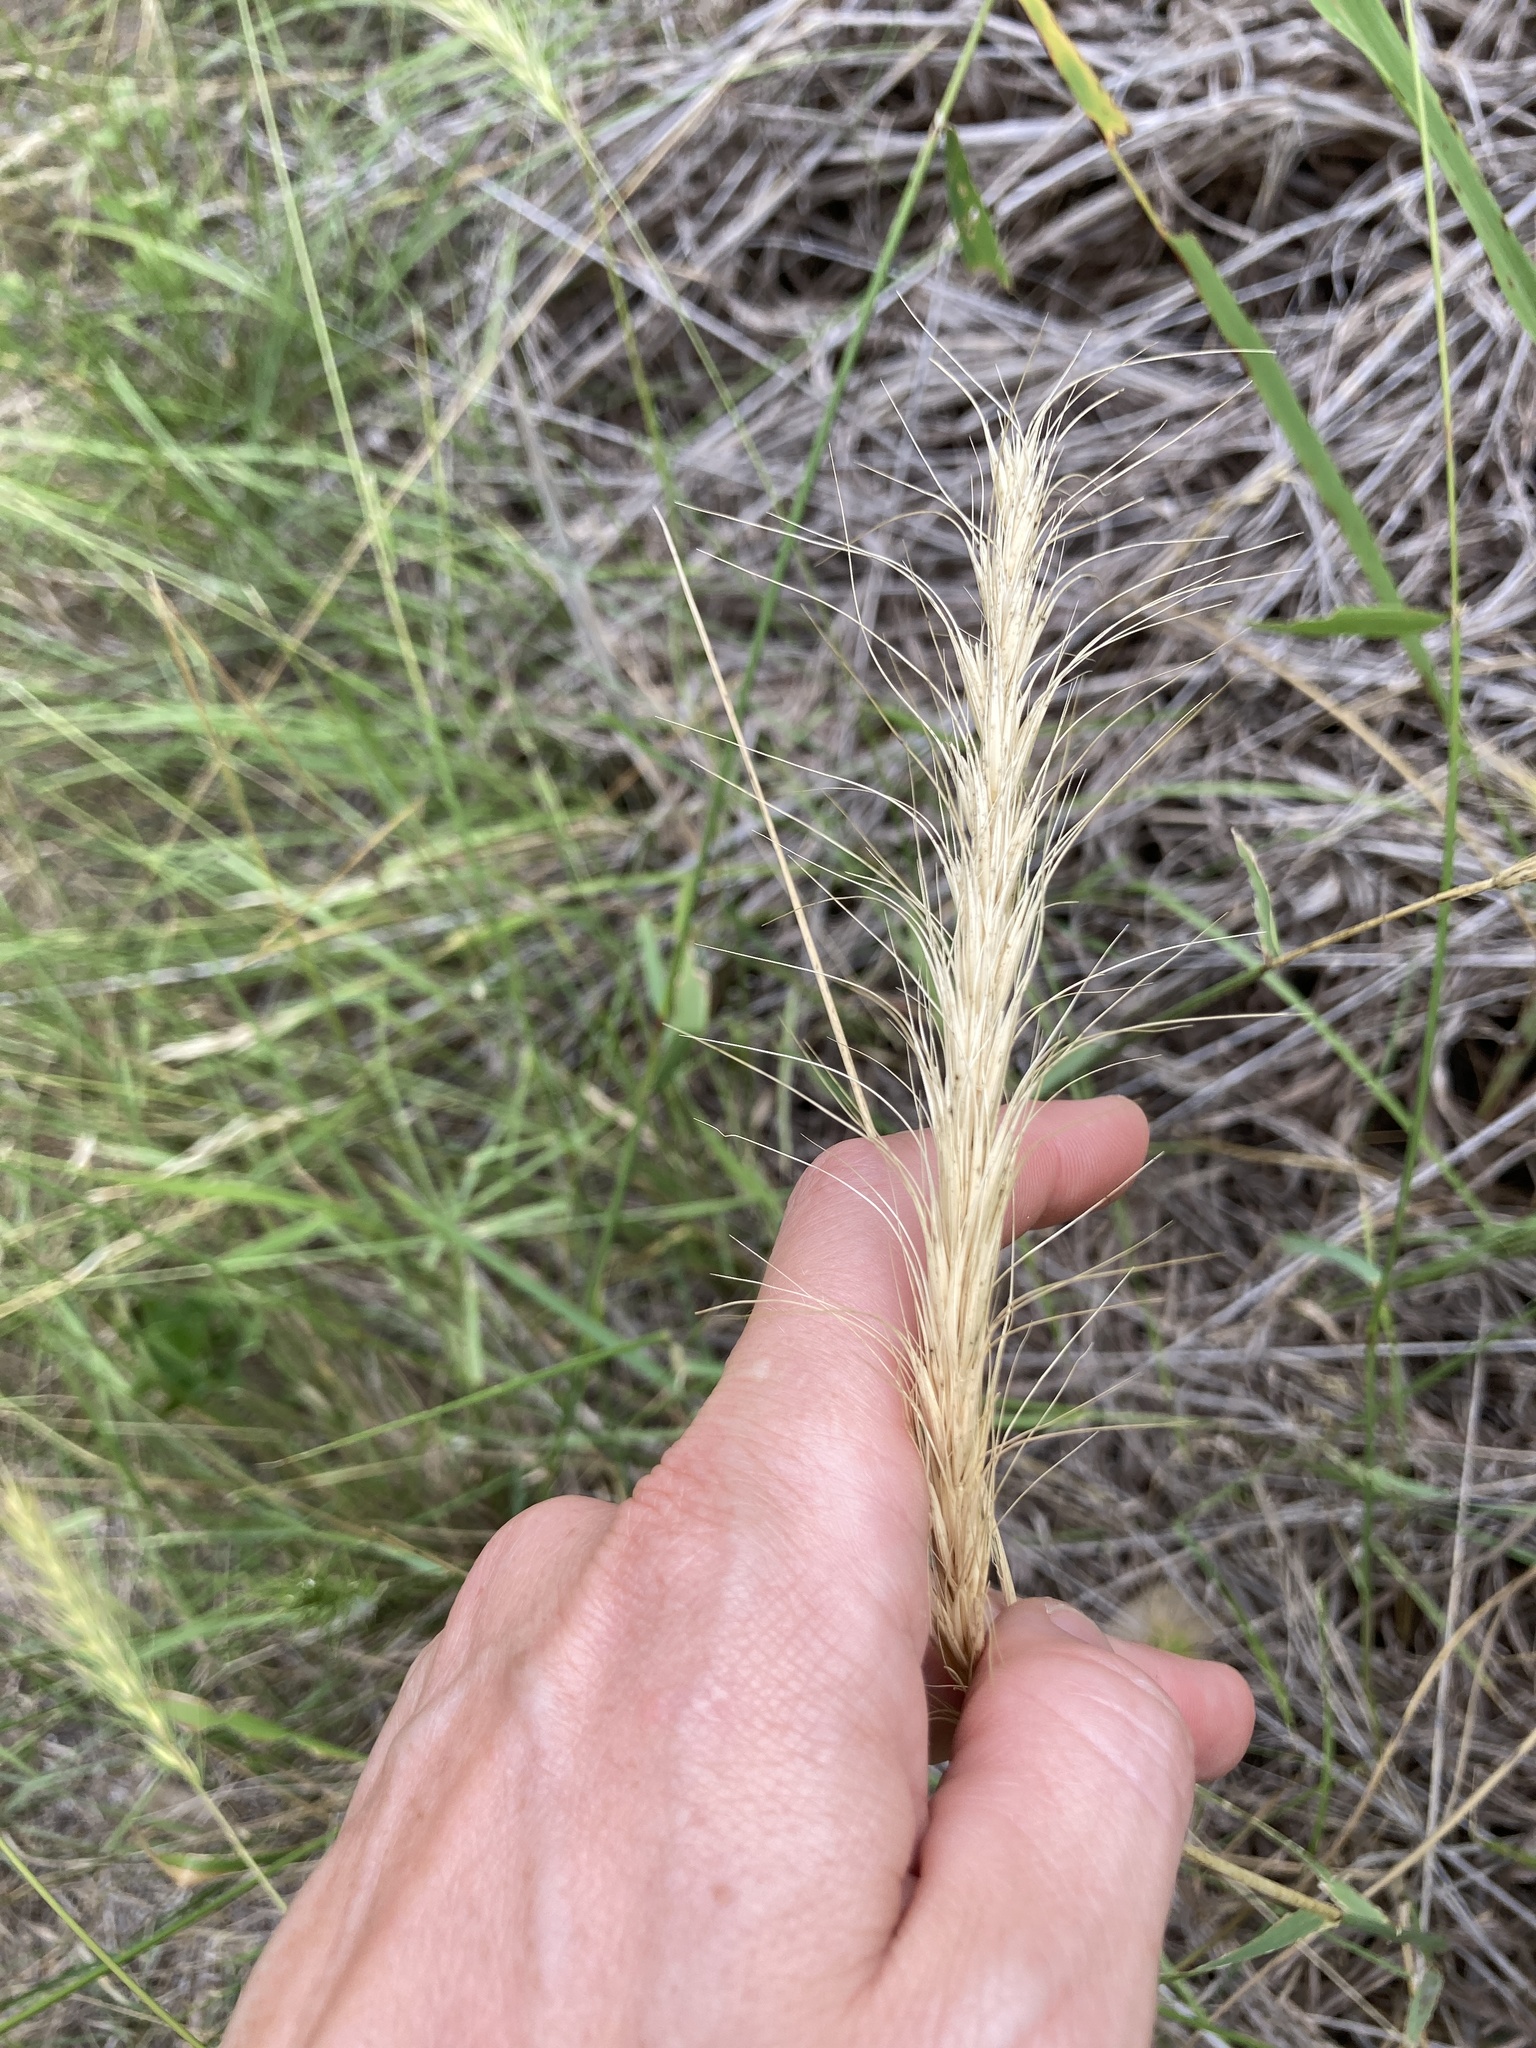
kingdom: Plantae
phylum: Tracheophyta
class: Liliopsida
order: Poales
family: Poaceae
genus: Elymus
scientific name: Elymus canadensis
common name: Canada wild rye
